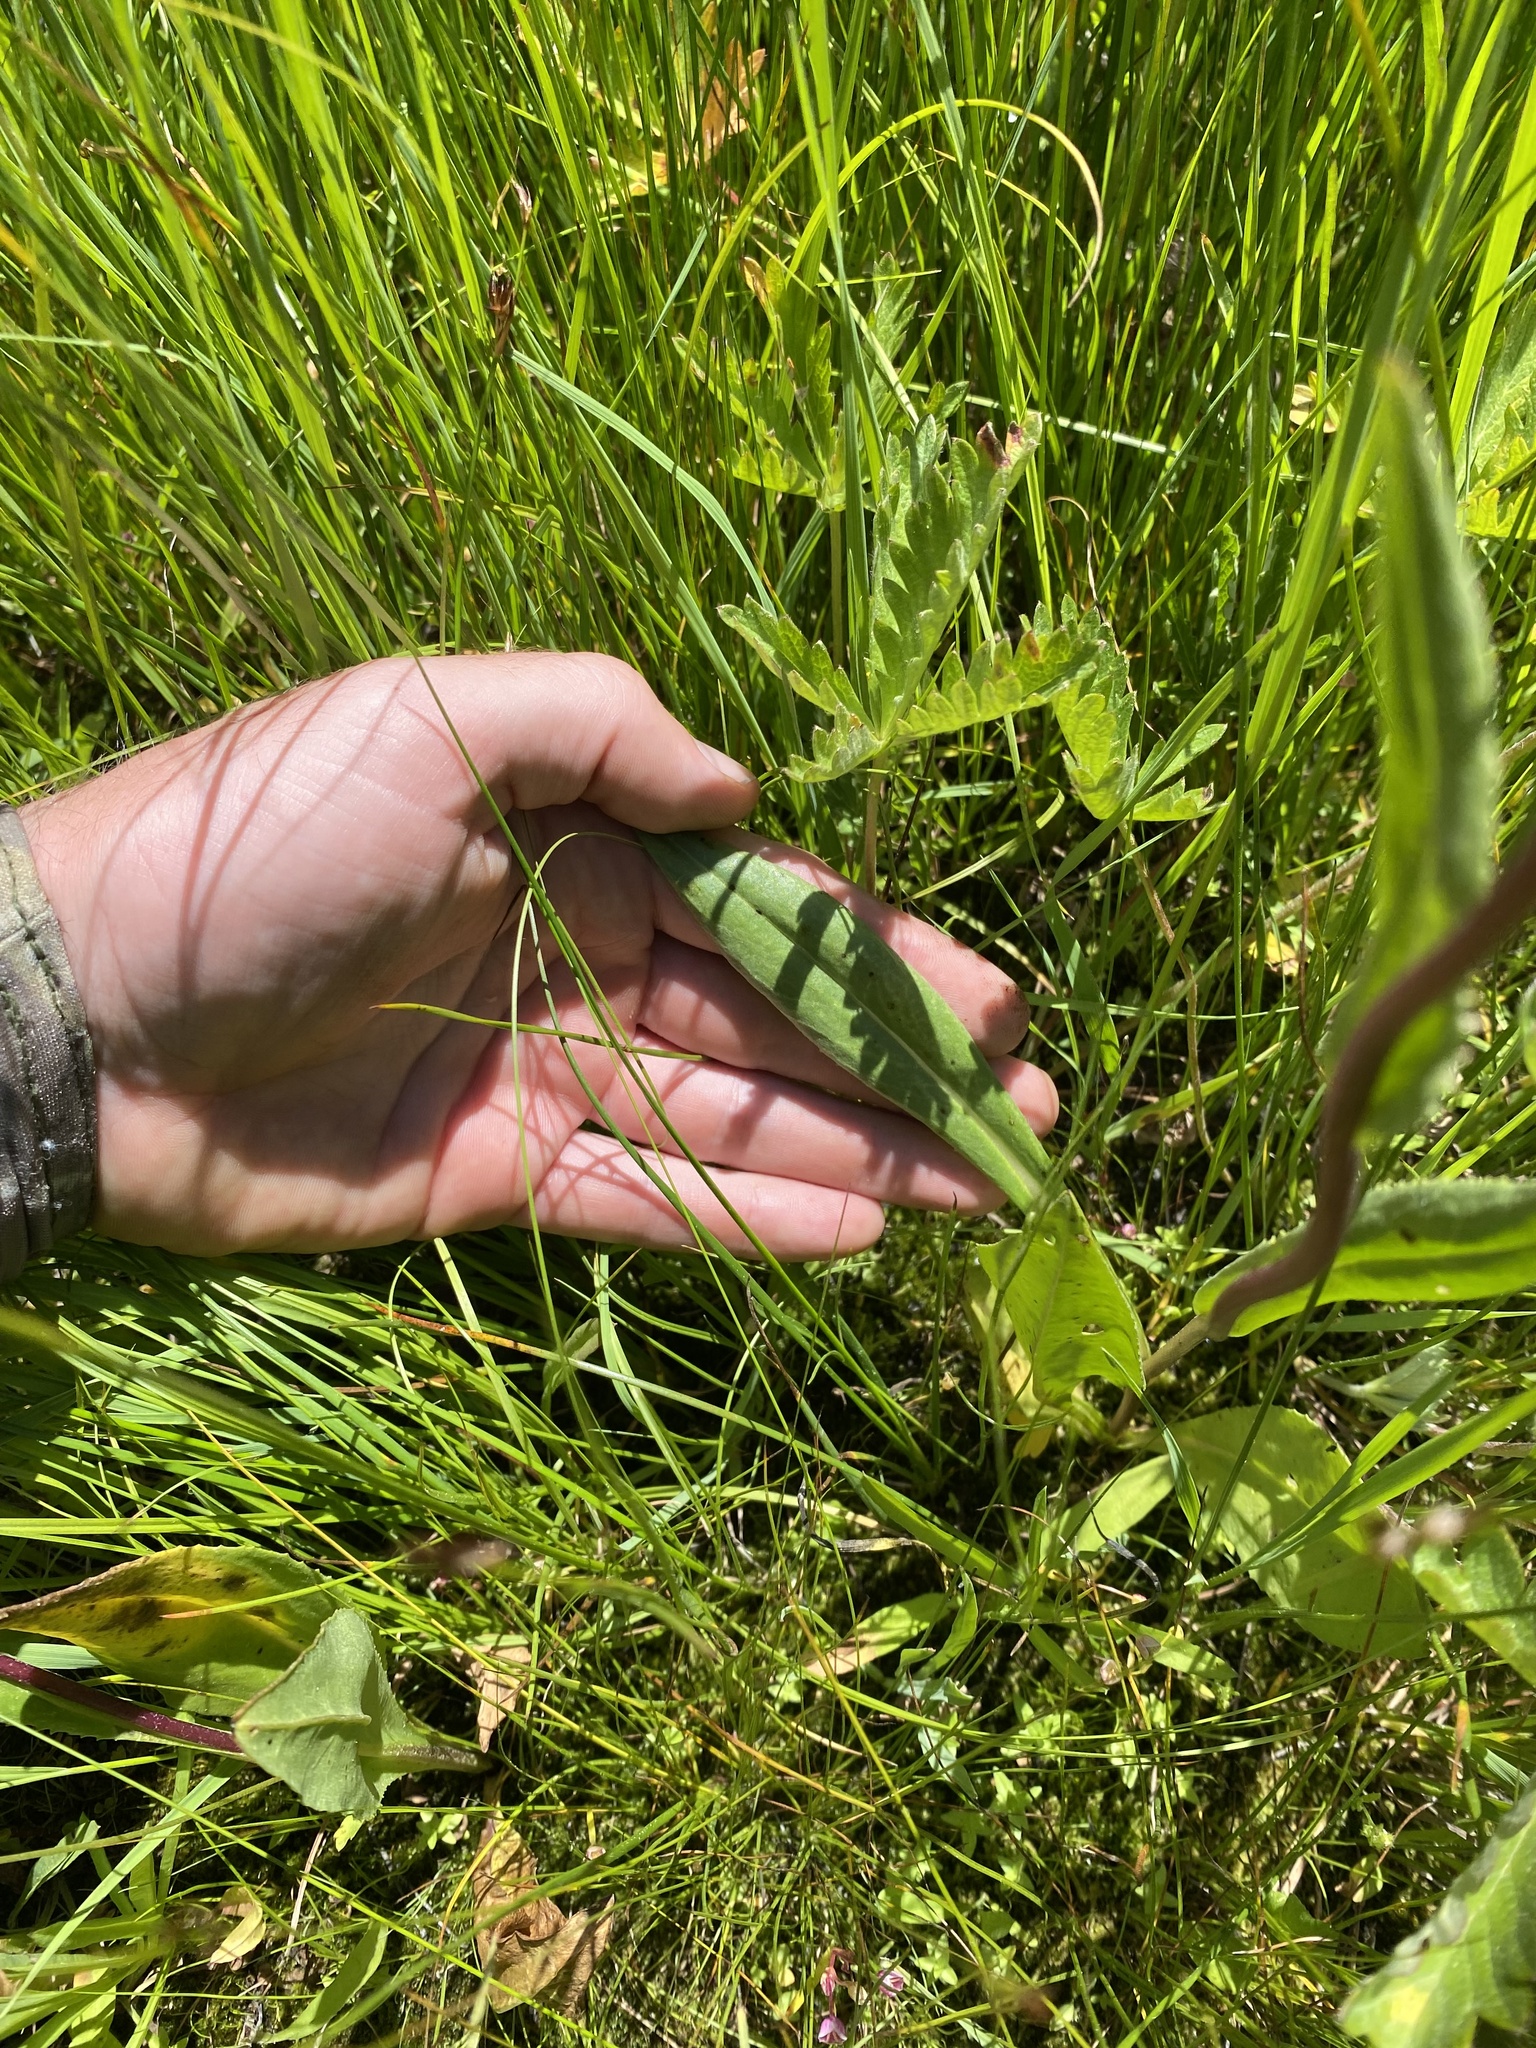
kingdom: Plantae
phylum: Tracheophyta
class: Magnoliopsida
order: Asterales
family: Asteraceae
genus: Senecio
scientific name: Senecio hydrophiloides
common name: Stout meadow groundsel
